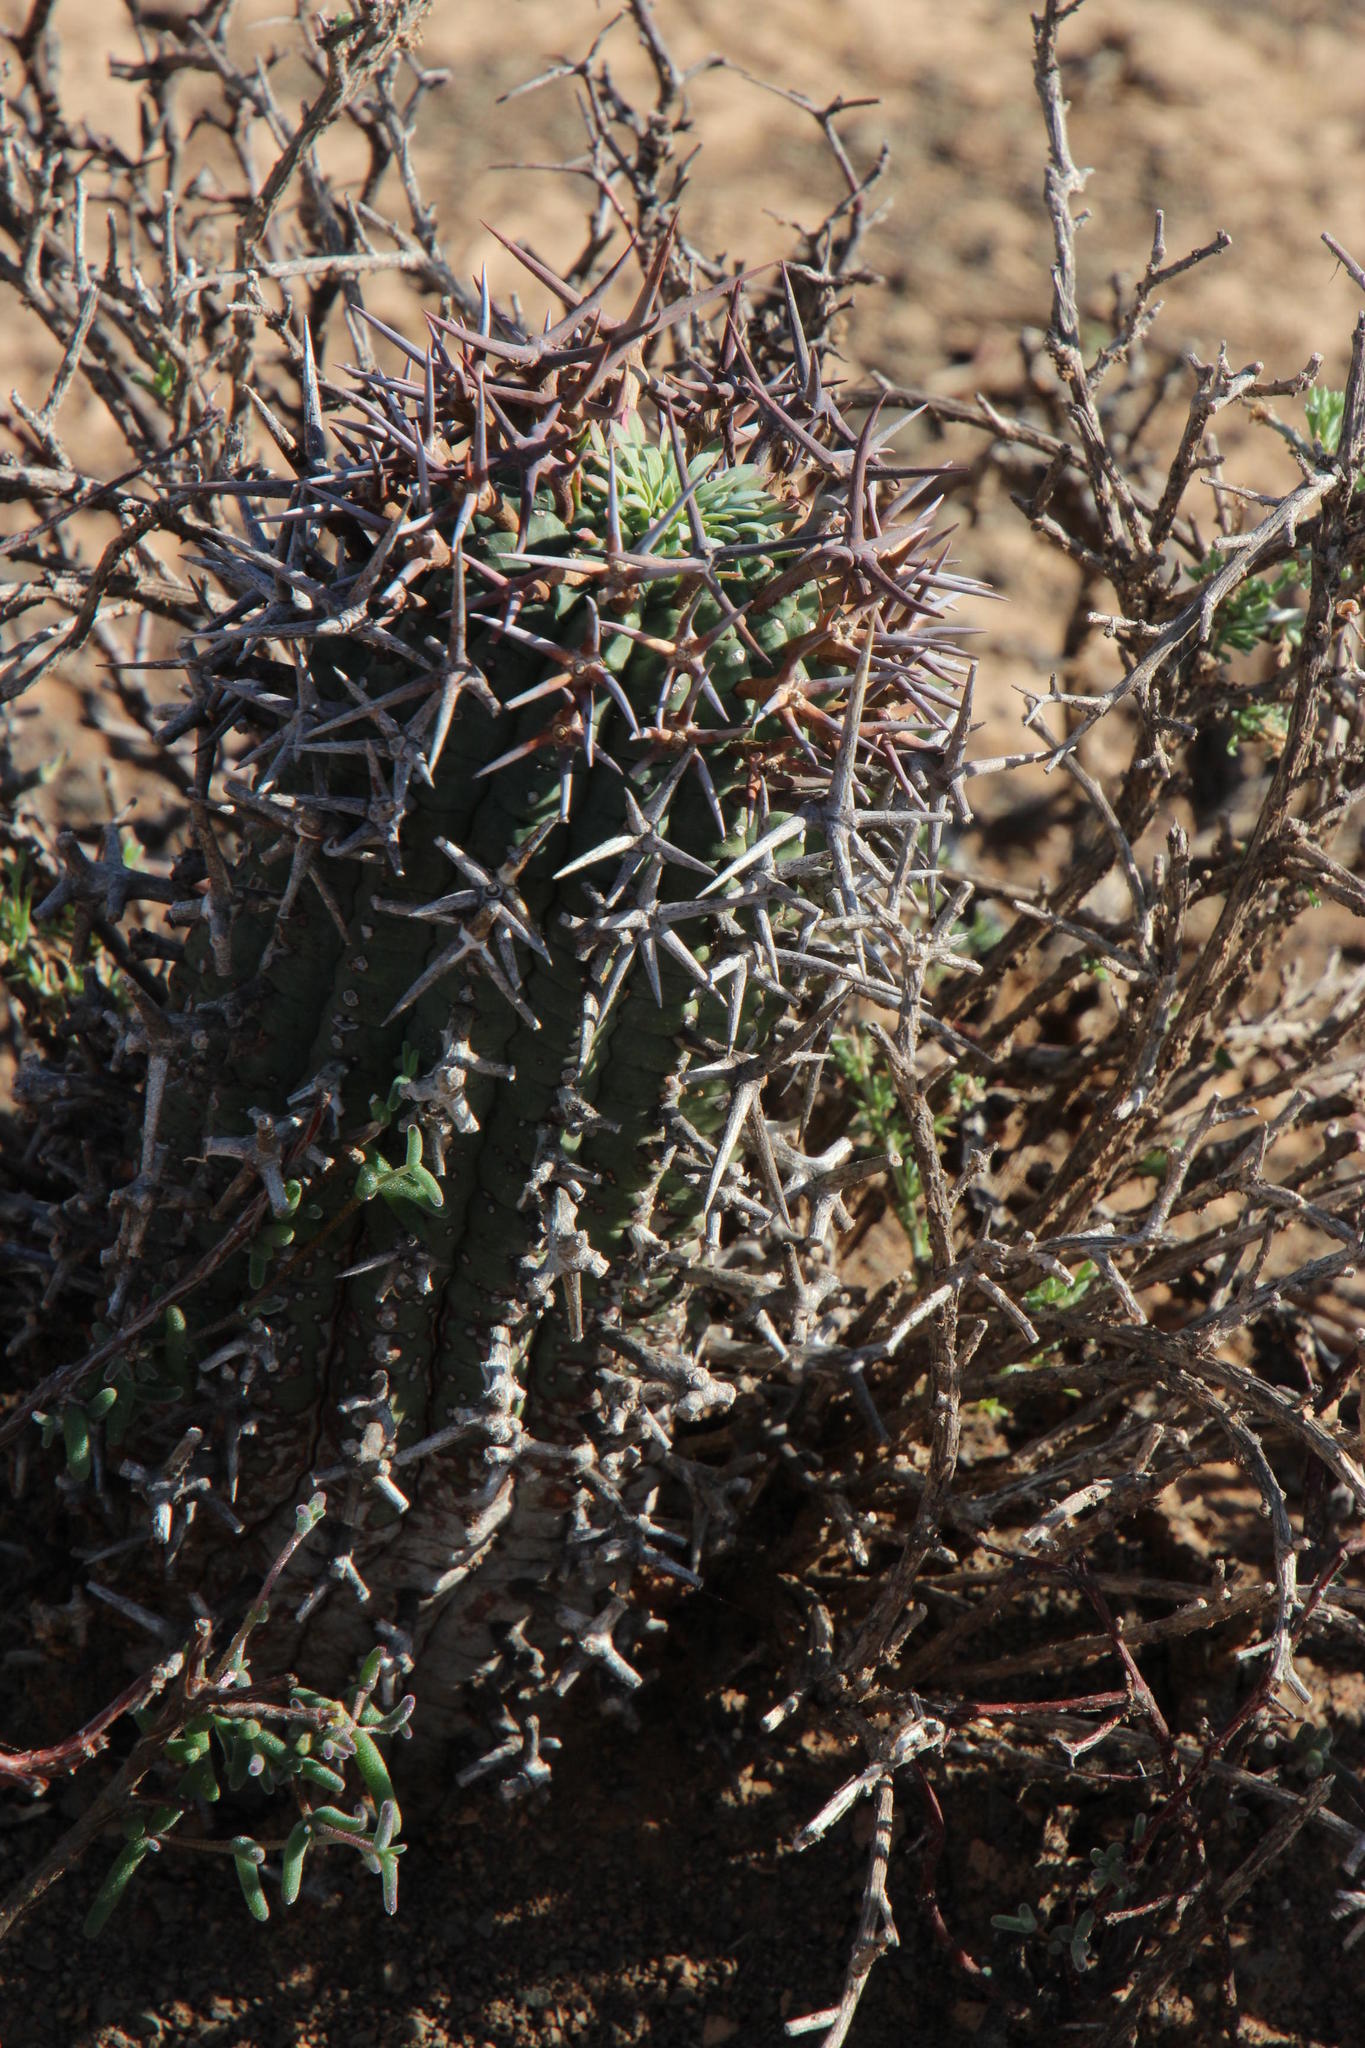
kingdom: Plantae
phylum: Tracheophyta
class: Magnoliopsida
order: Malpighiales
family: Euphorbiaceae
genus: Euphorbia
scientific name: Euphorbia stellispina
